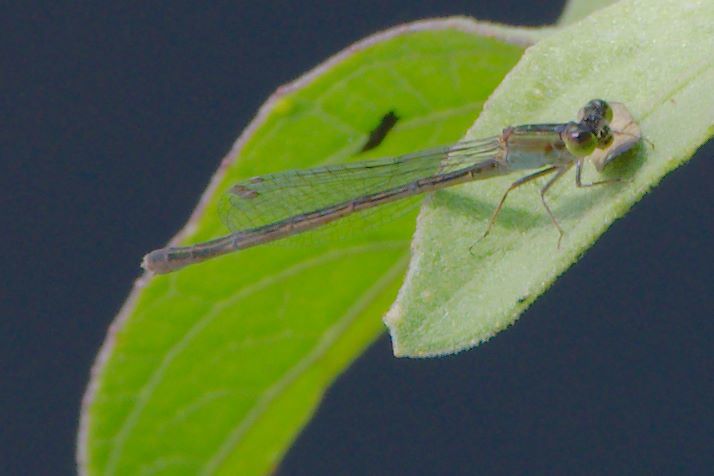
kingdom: Animalia
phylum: Arthropoda
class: Insecta
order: Odonata
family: Coenagrionidae
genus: Ischnura
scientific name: Ischnura ramburii
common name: Rambur's forktail
